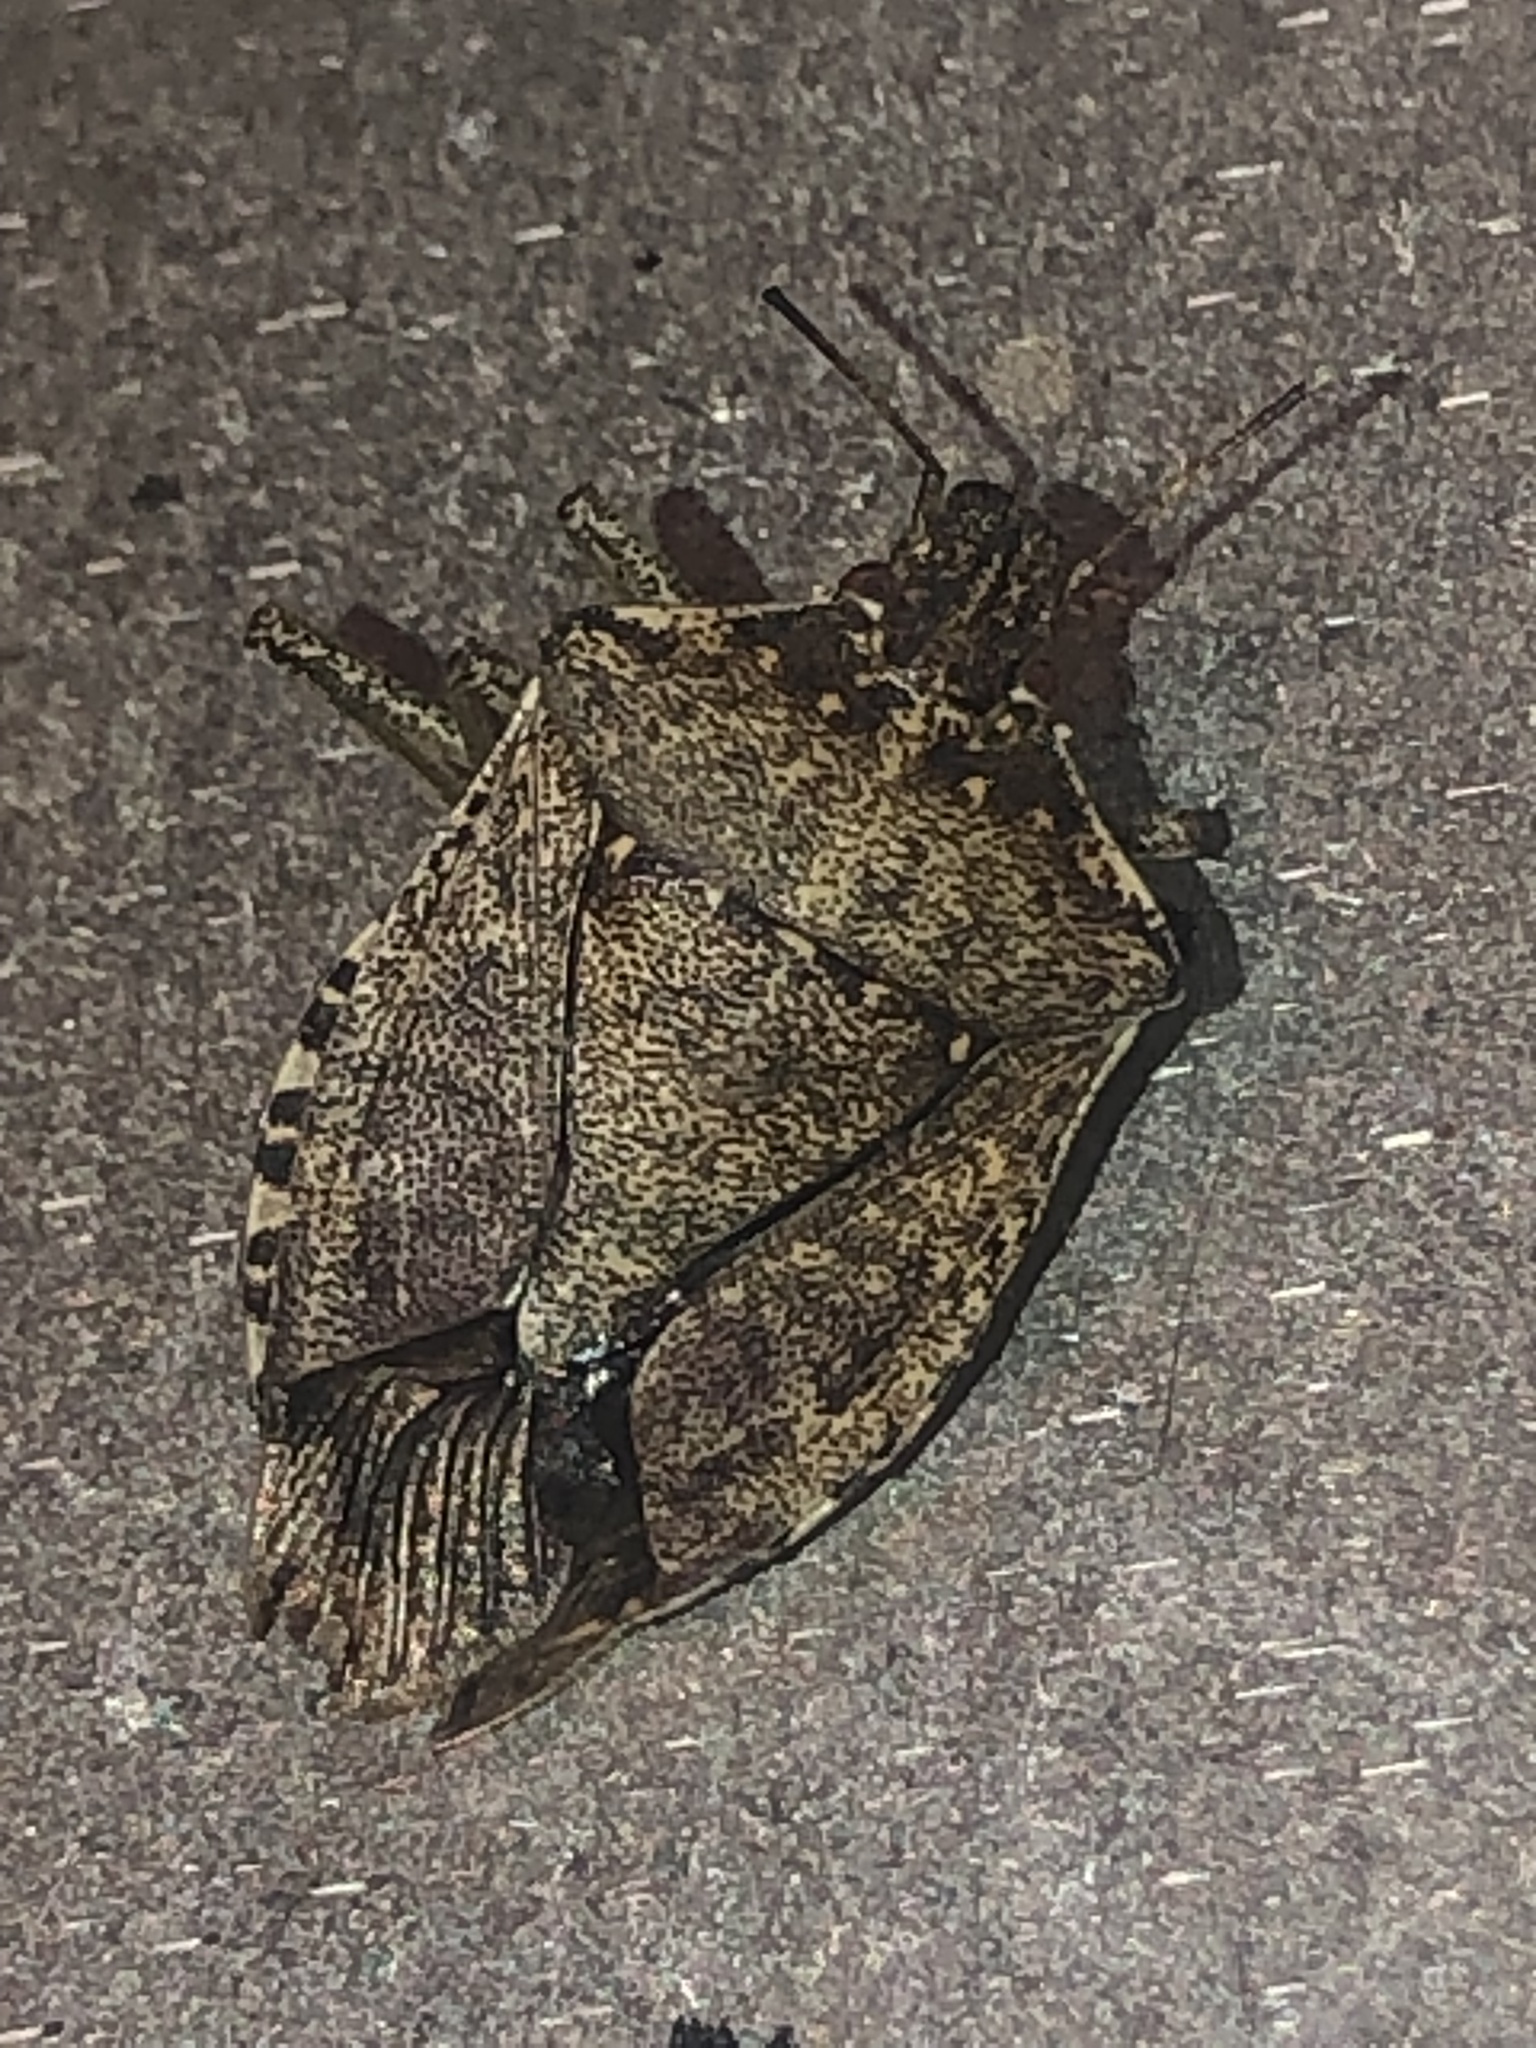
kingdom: Animalia
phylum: Arthropoda
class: Insecta
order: Hemiptera
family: Pentatomidae
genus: Halyomorpha
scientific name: Halyomorpha halys
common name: Brown marmorated stink bug
